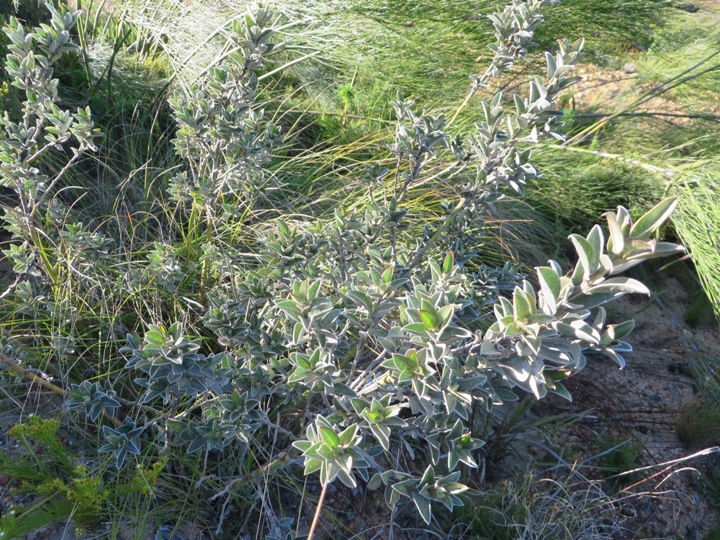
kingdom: Plantae
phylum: Tracheophyta
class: Magnoliopsida
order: Fabales
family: Fabaceae
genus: Podalyria
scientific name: Podalyria calyptrata
